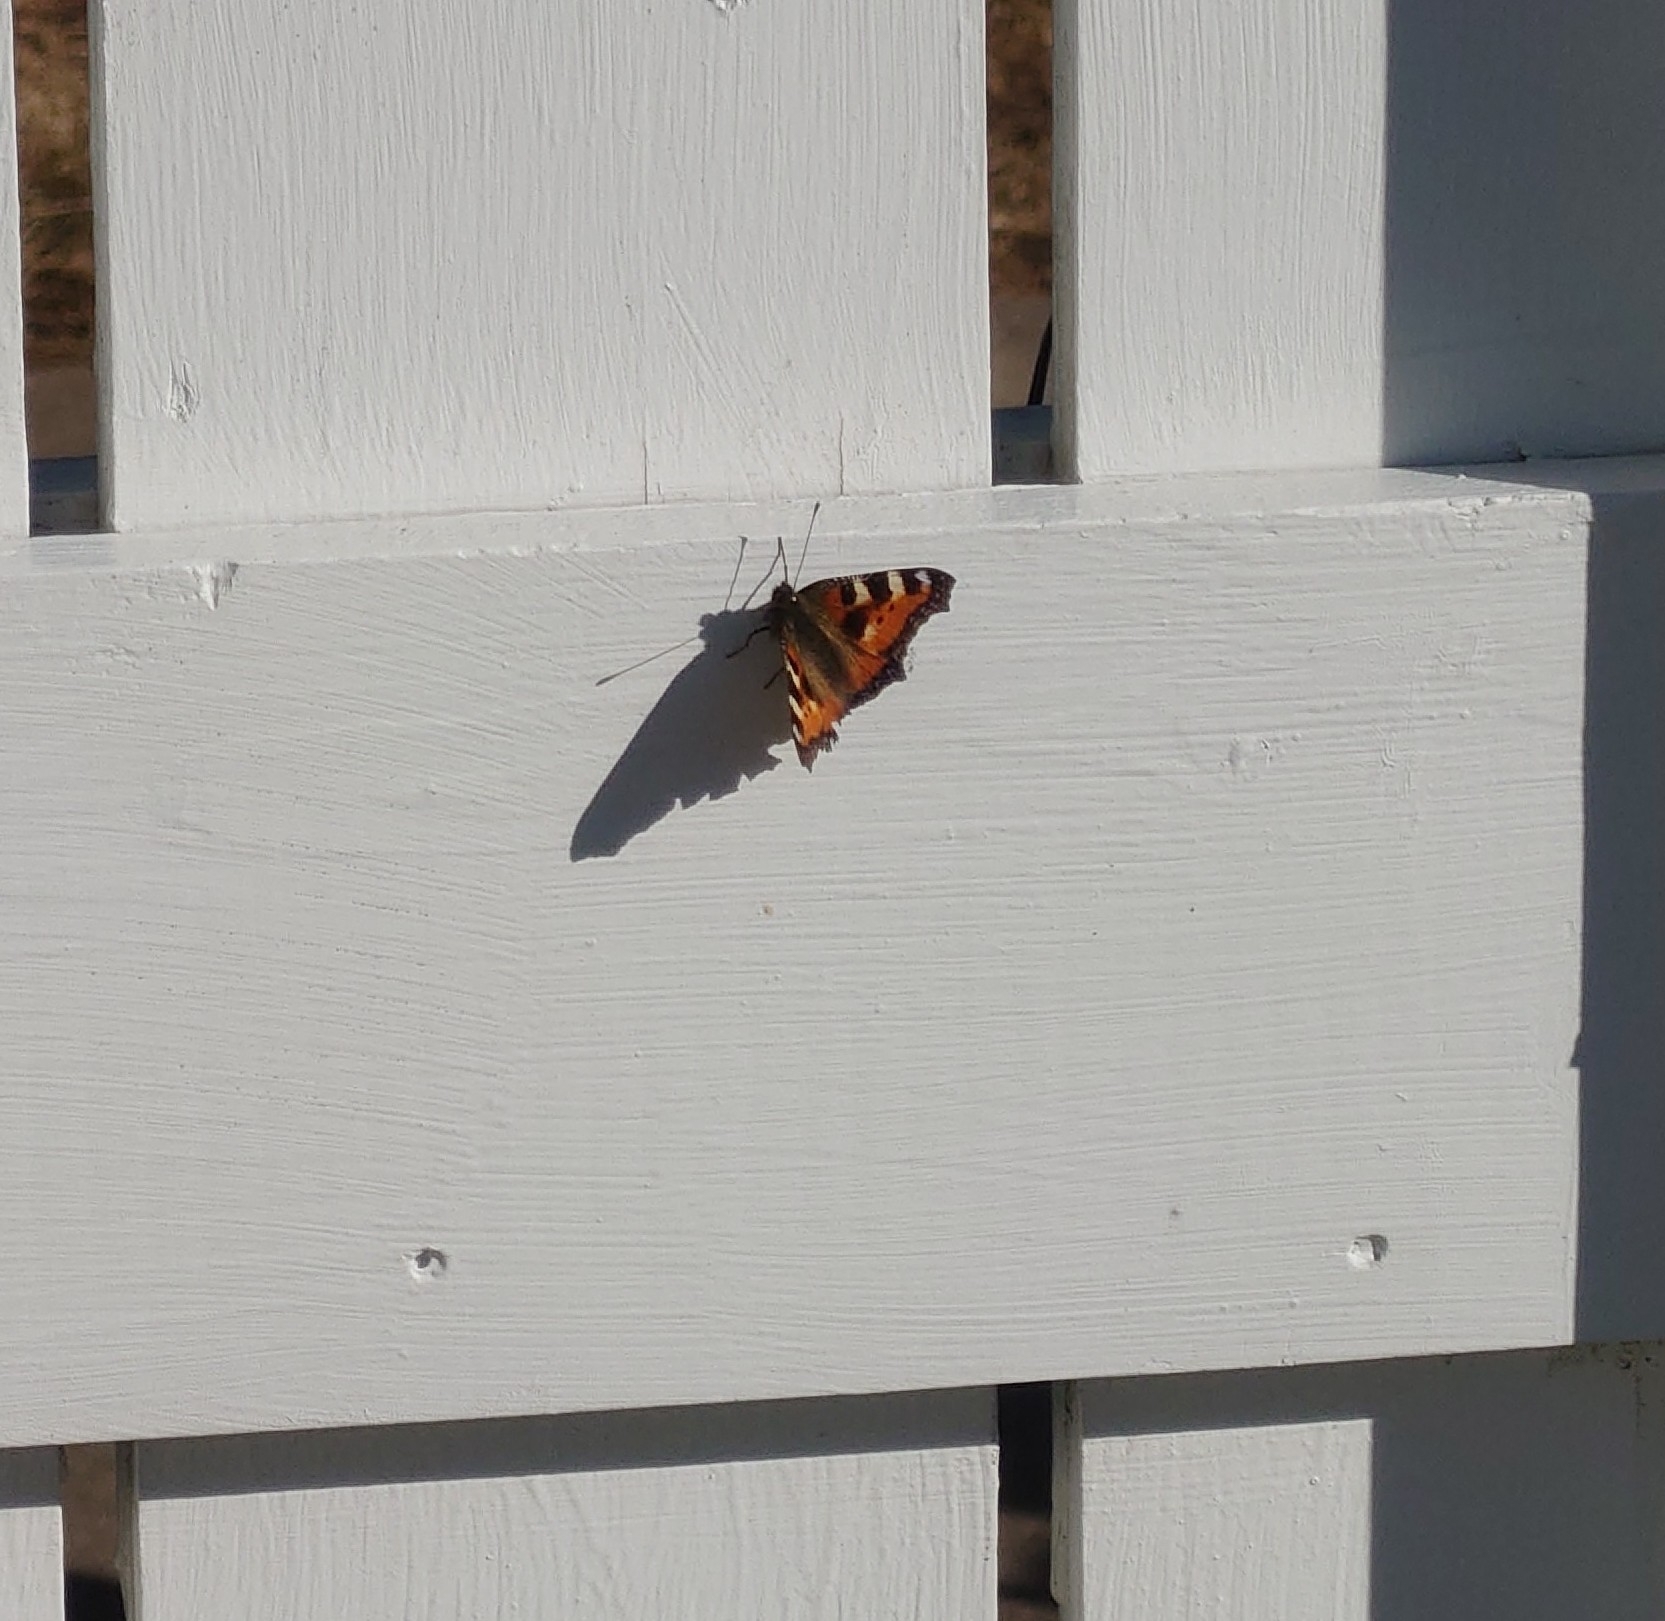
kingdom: Animalia
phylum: Arthropoda
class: Insecta
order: Lepidoptera
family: Nymphalidae
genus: Aglais
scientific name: Aglais urticae
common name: Small tortoiseshell
